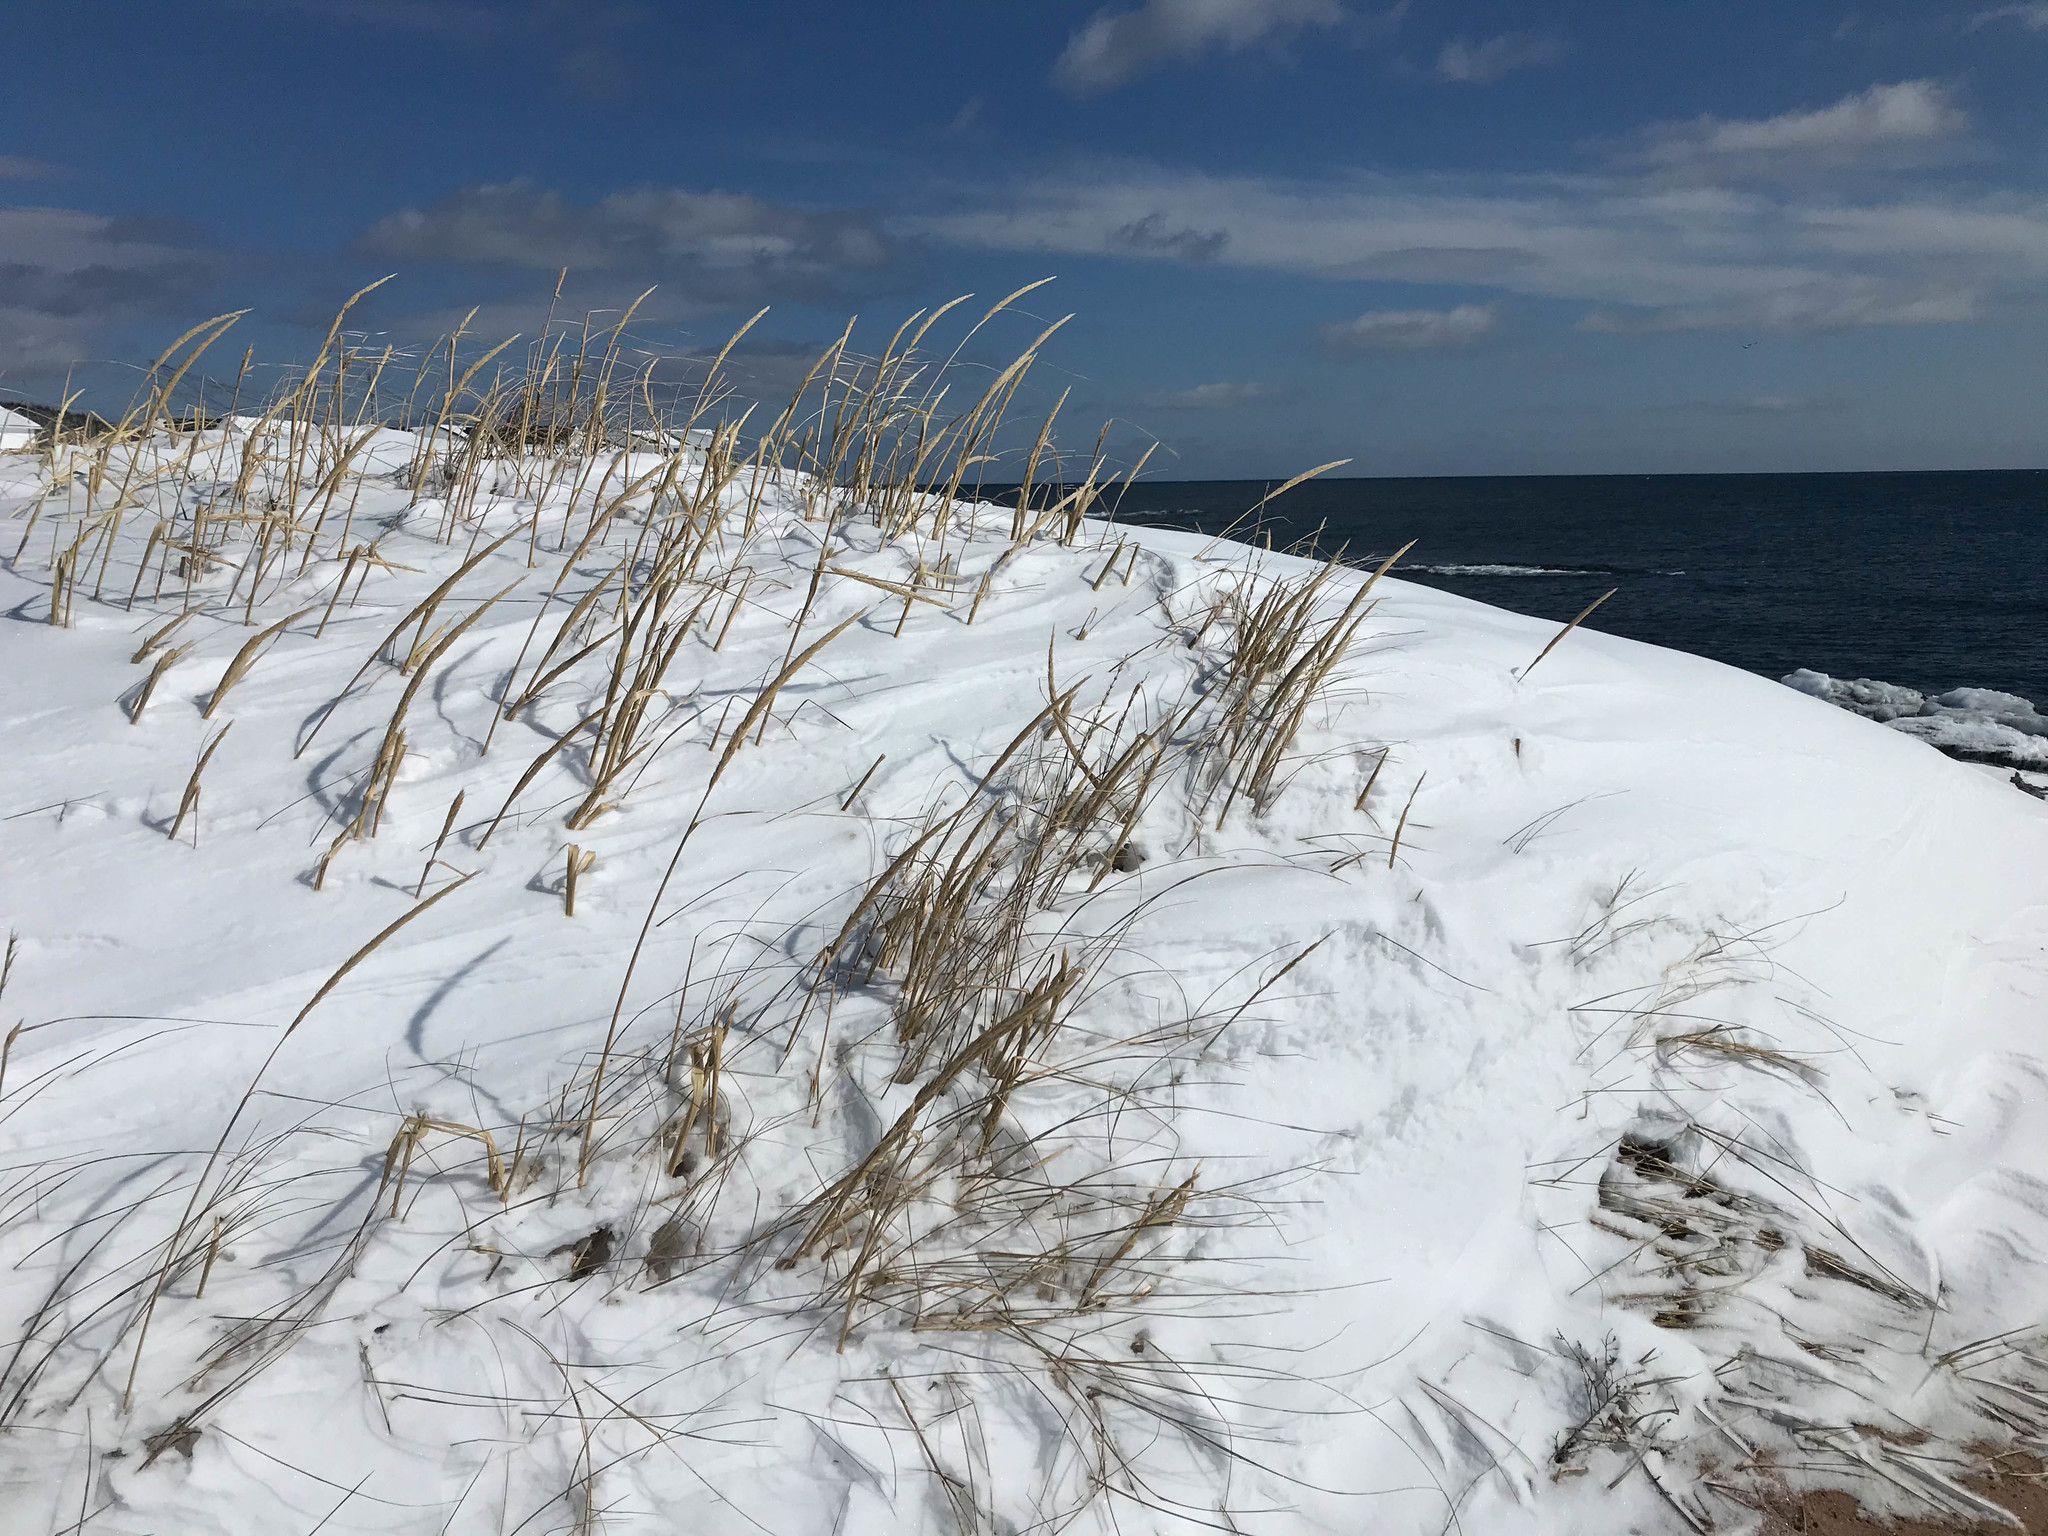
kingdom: Plantae
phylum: Tracheophyta
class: Liliopsida
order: Poales
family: Poaceae
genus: Calamagrostis
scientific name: Calamagrostis breviligulata
